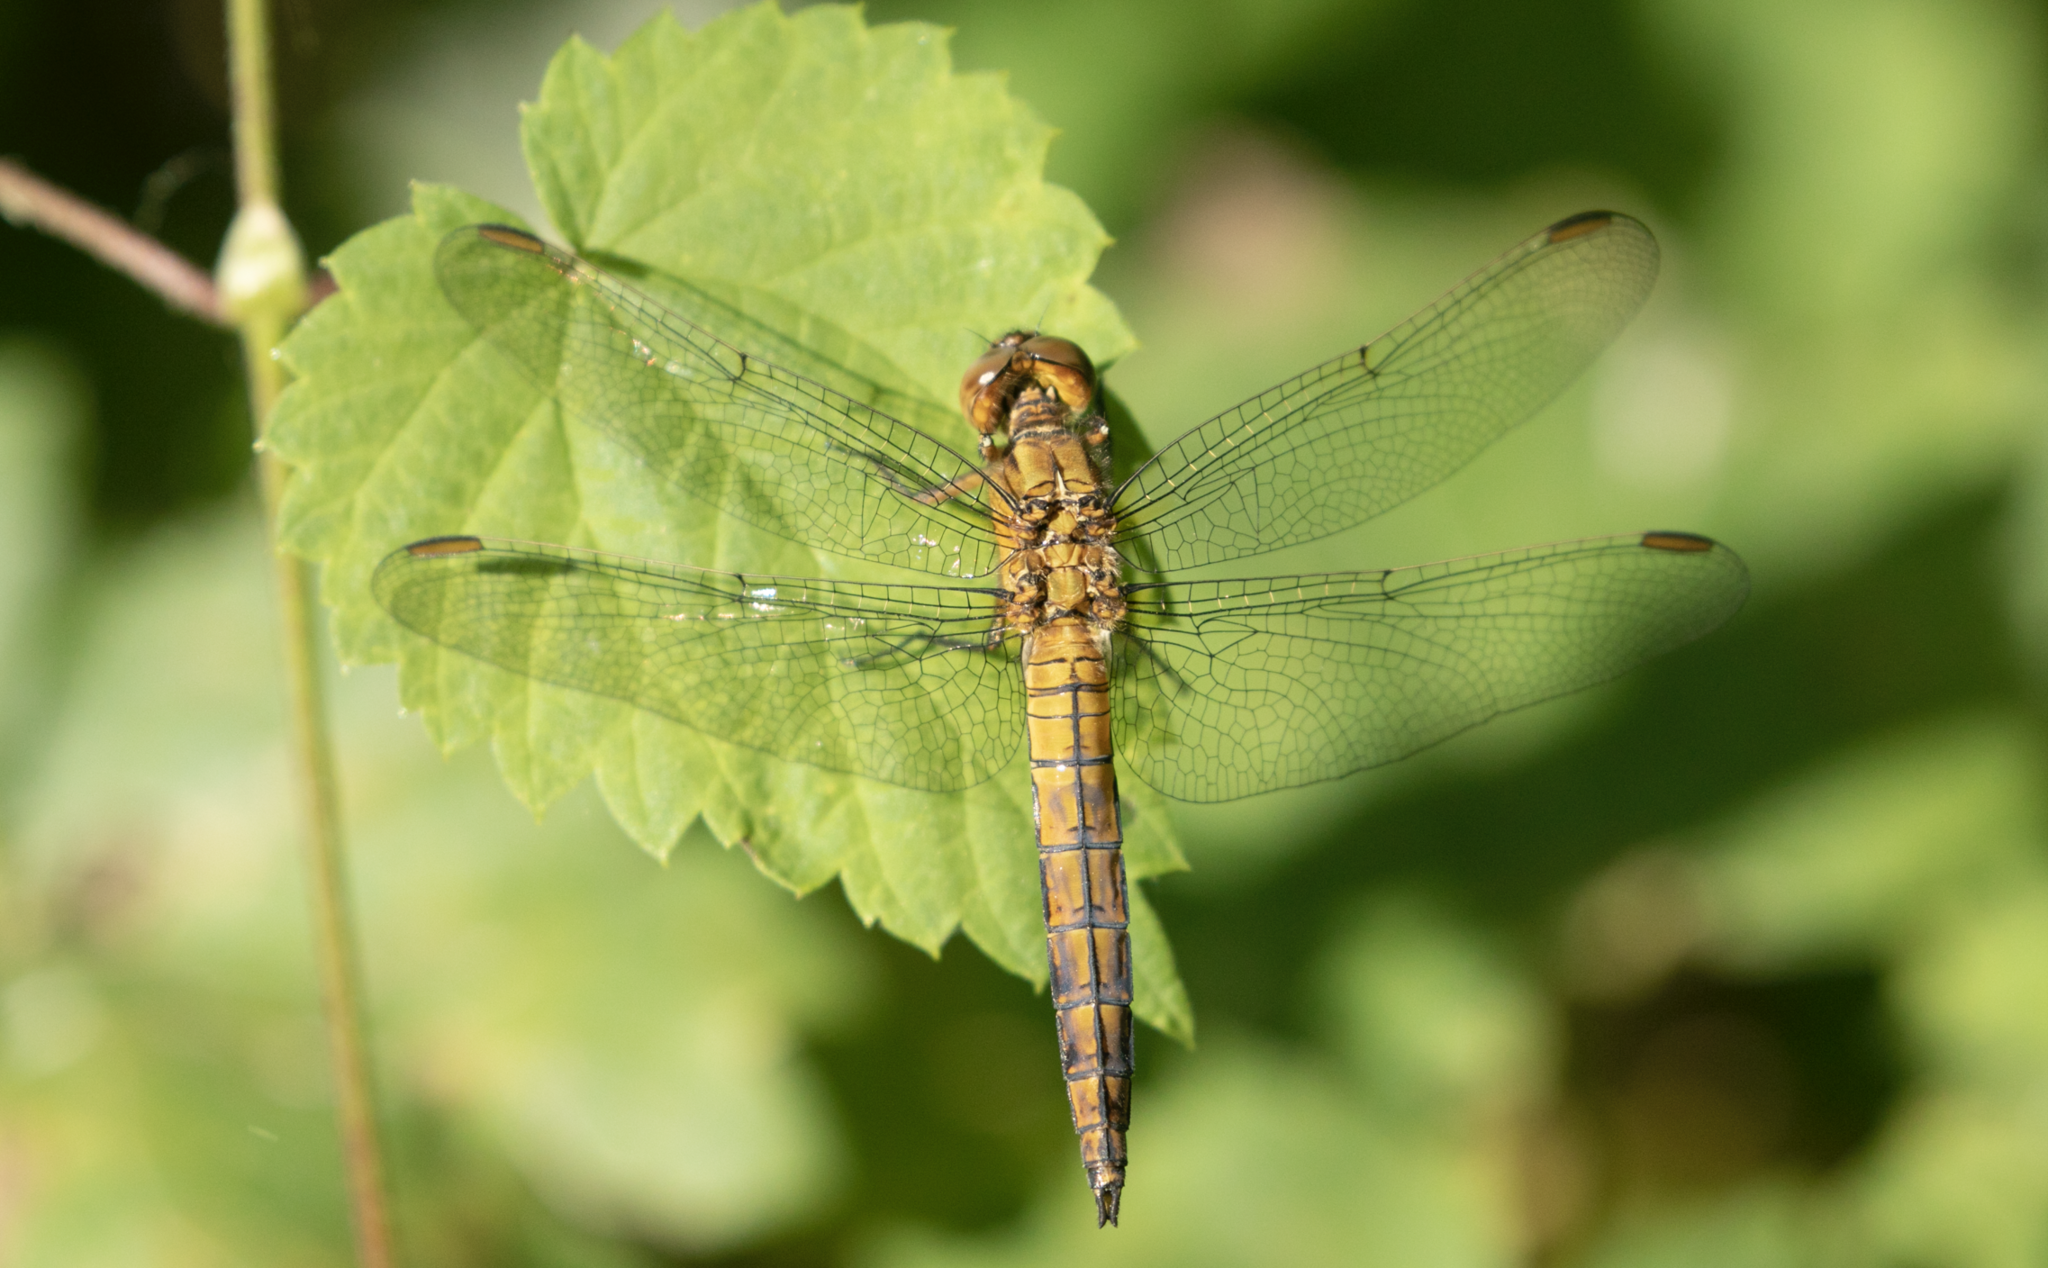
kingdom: Animalia
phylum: Arthropoda
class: Insecta
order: Odonata
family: Libellulidae
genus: Orthetrum
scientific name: Orthetrum coerulescens
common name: Keeled skimmer
